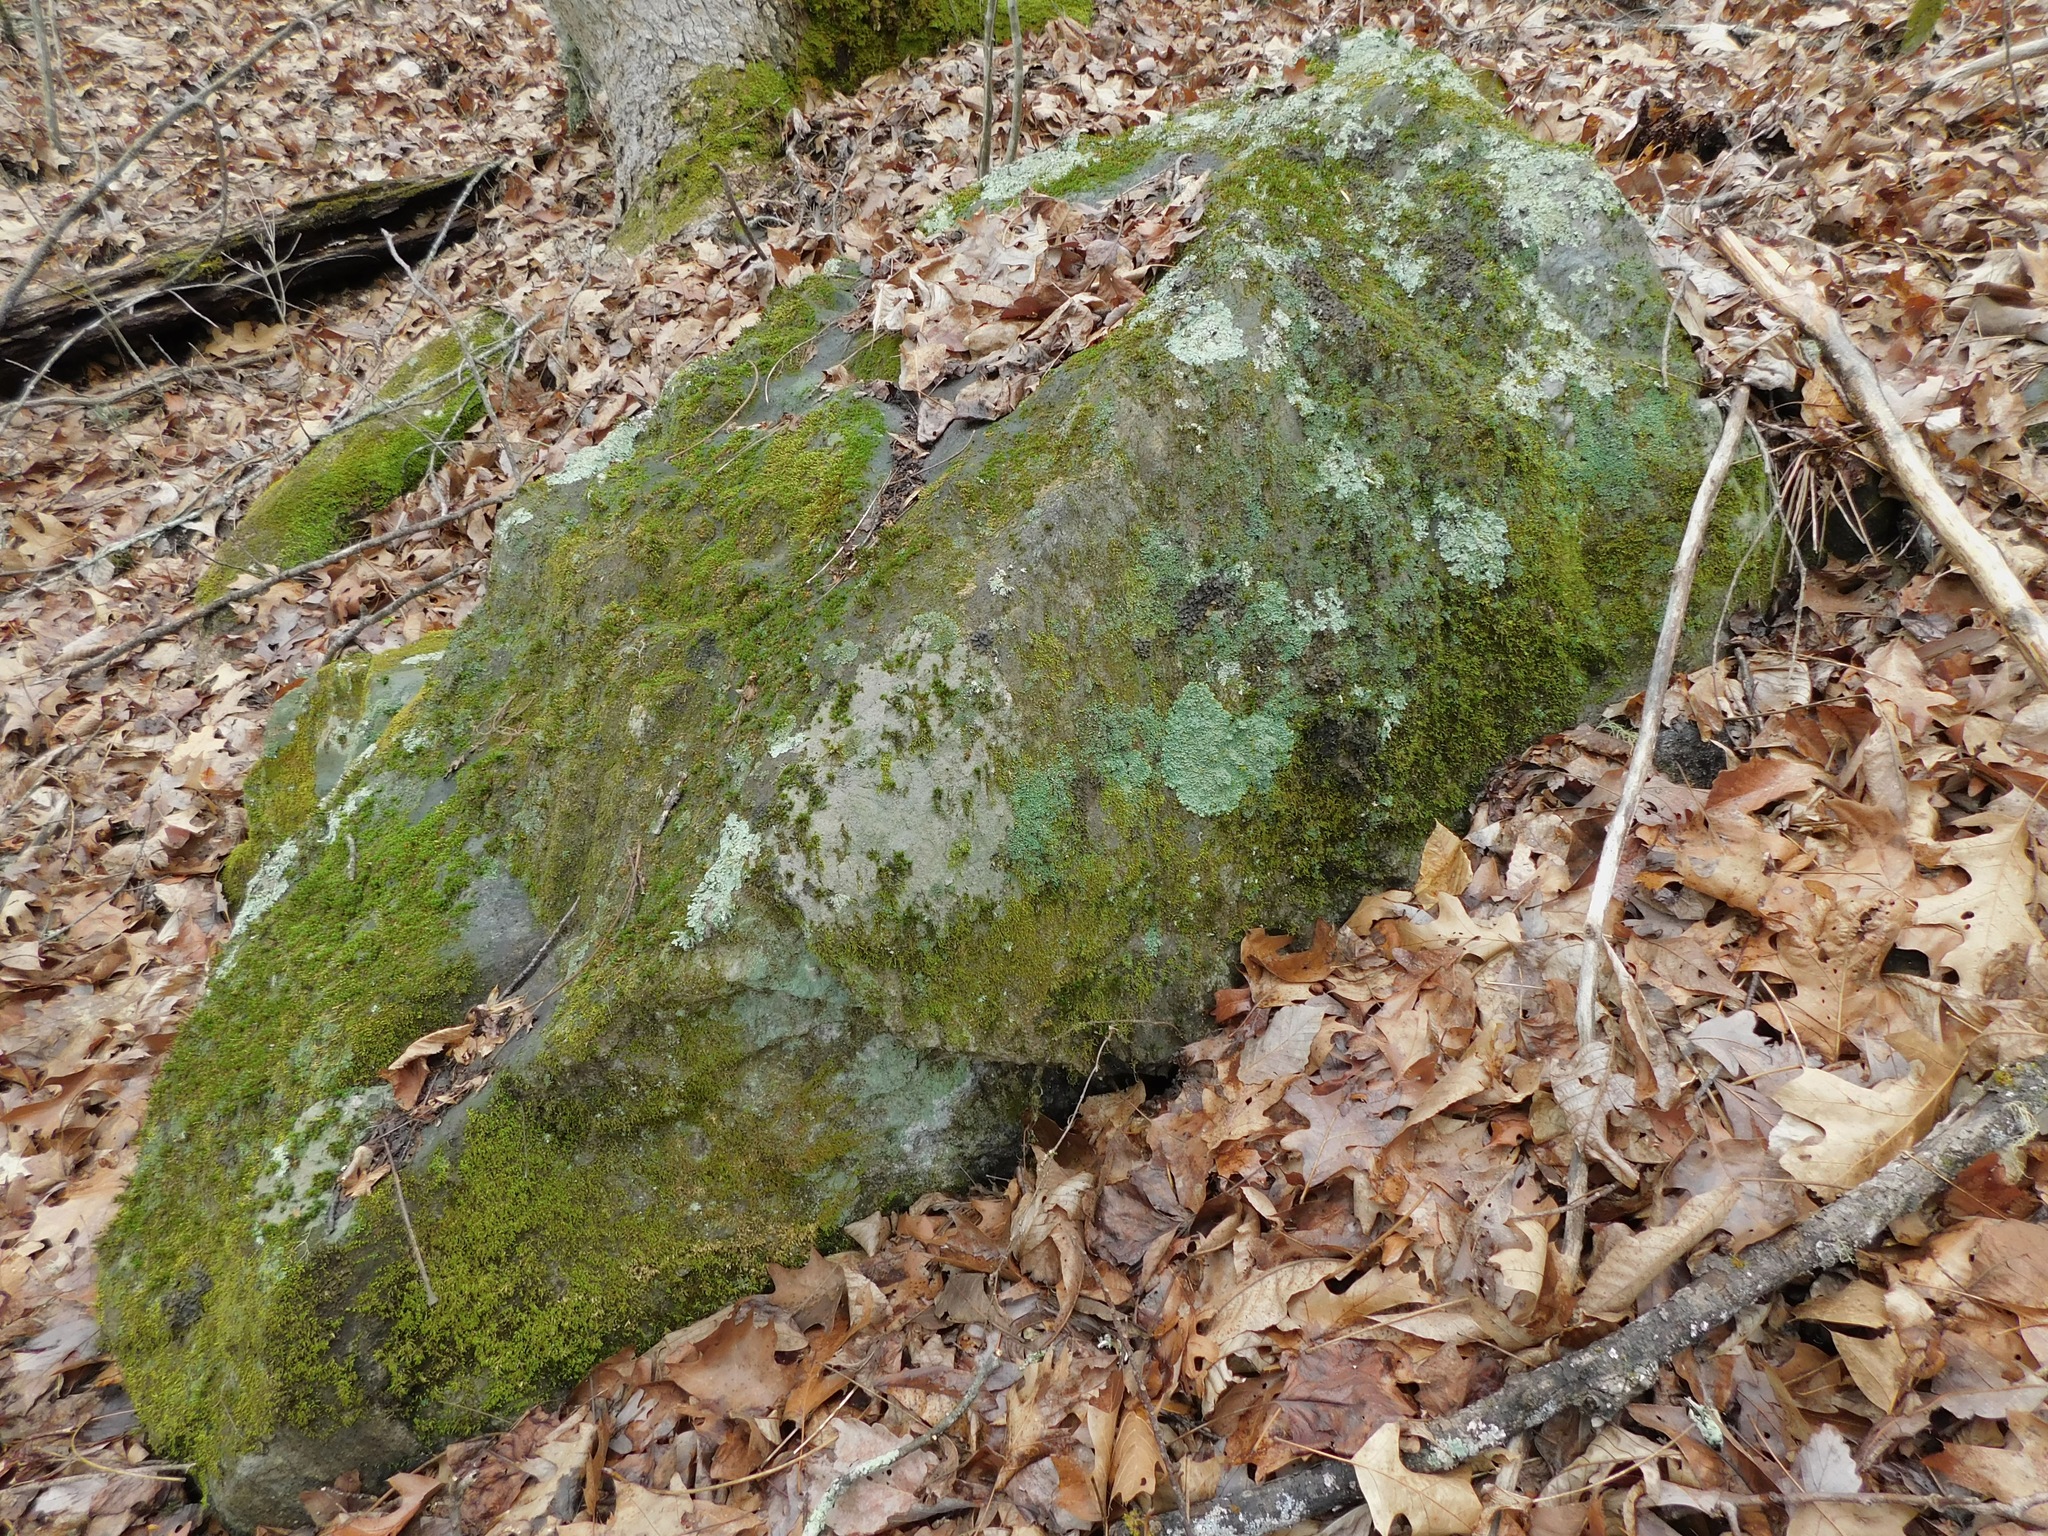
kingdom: Fungi
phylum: Ascomycota
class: Lecanoromycetes
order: Caliciales
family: Physciaceae
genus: Polyblastidium
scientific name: Polyblastidium casarettianum
